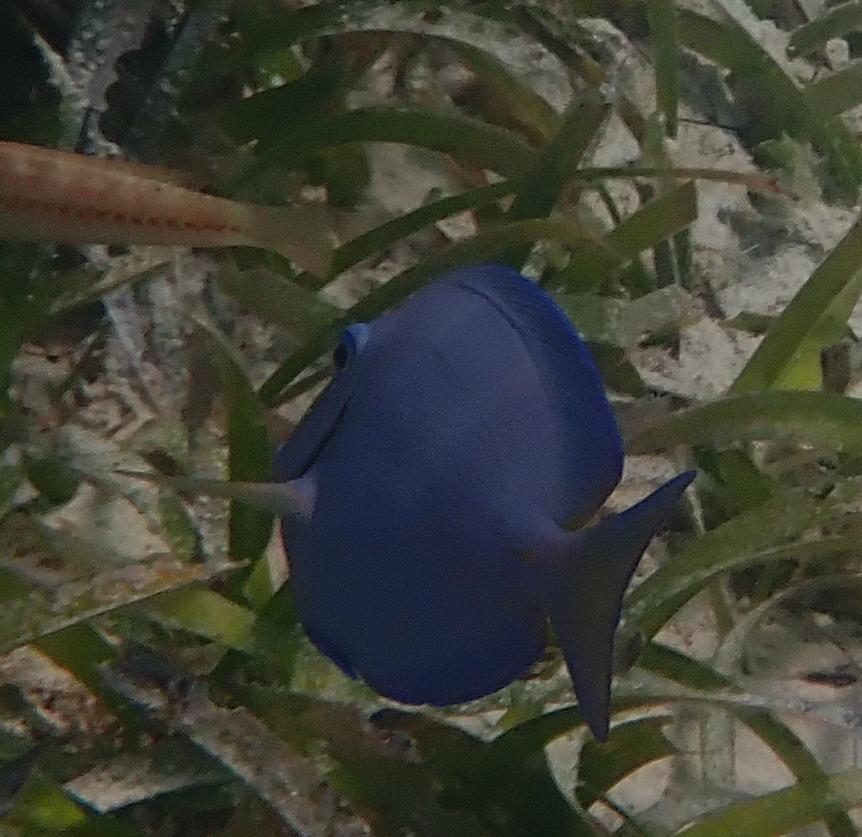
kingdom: Animalia
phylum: Chordata
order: Perciformes
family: Acanthuridae
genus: Acanthurus
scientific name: Acanthurus coeruleus
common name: Blue tang
